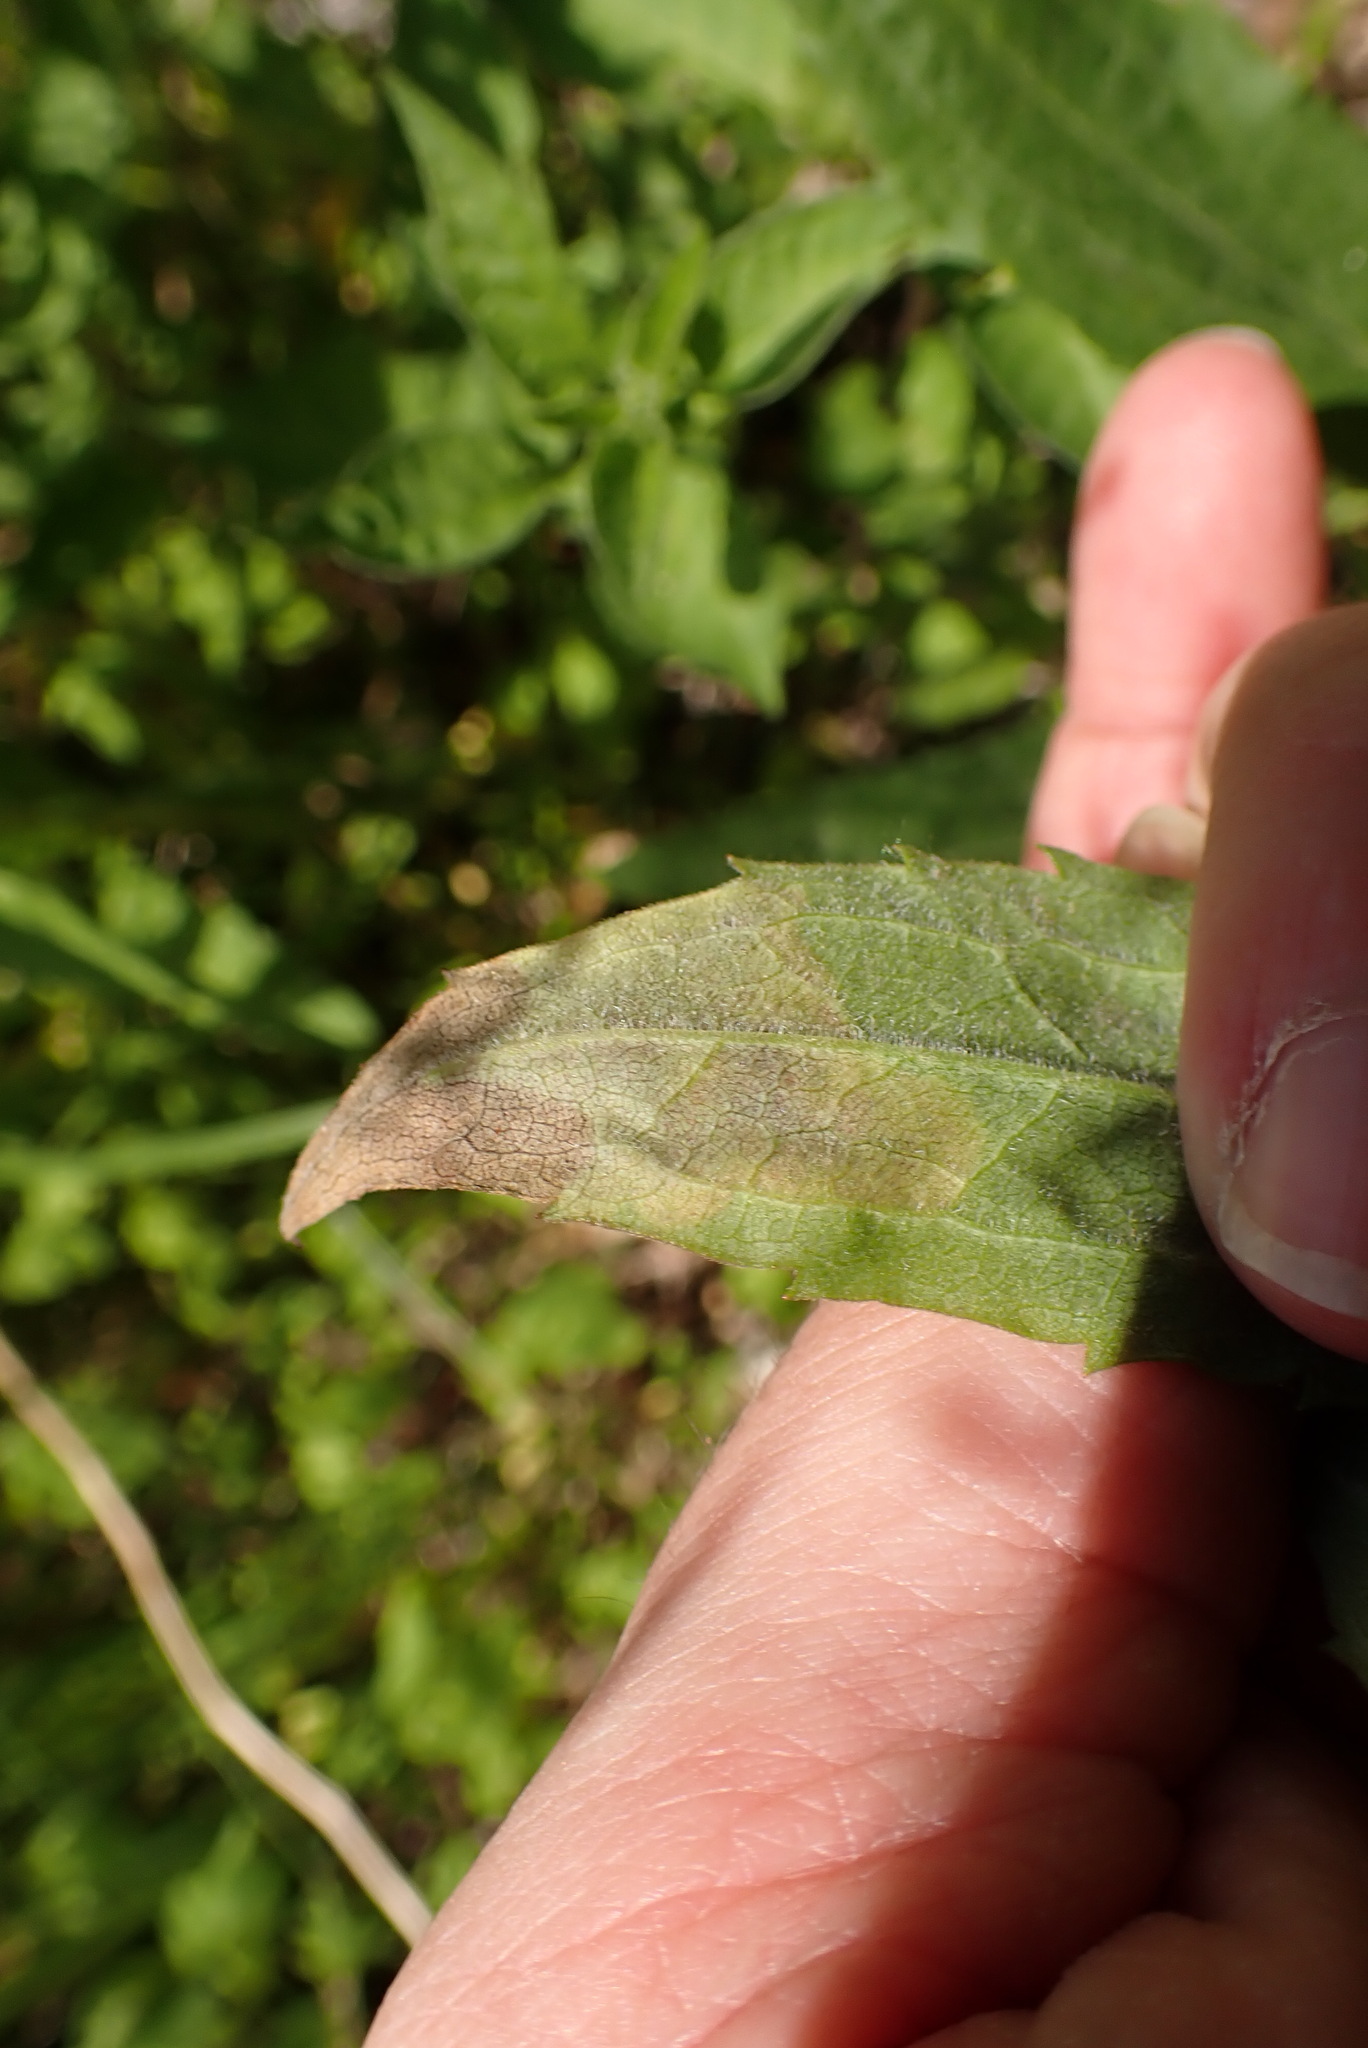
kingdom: Animalia
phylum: Arthropoda
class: Insecta
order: Diptera
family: Agromyzidae
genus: Nemorimyza
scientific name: Nemorimyza posticata
